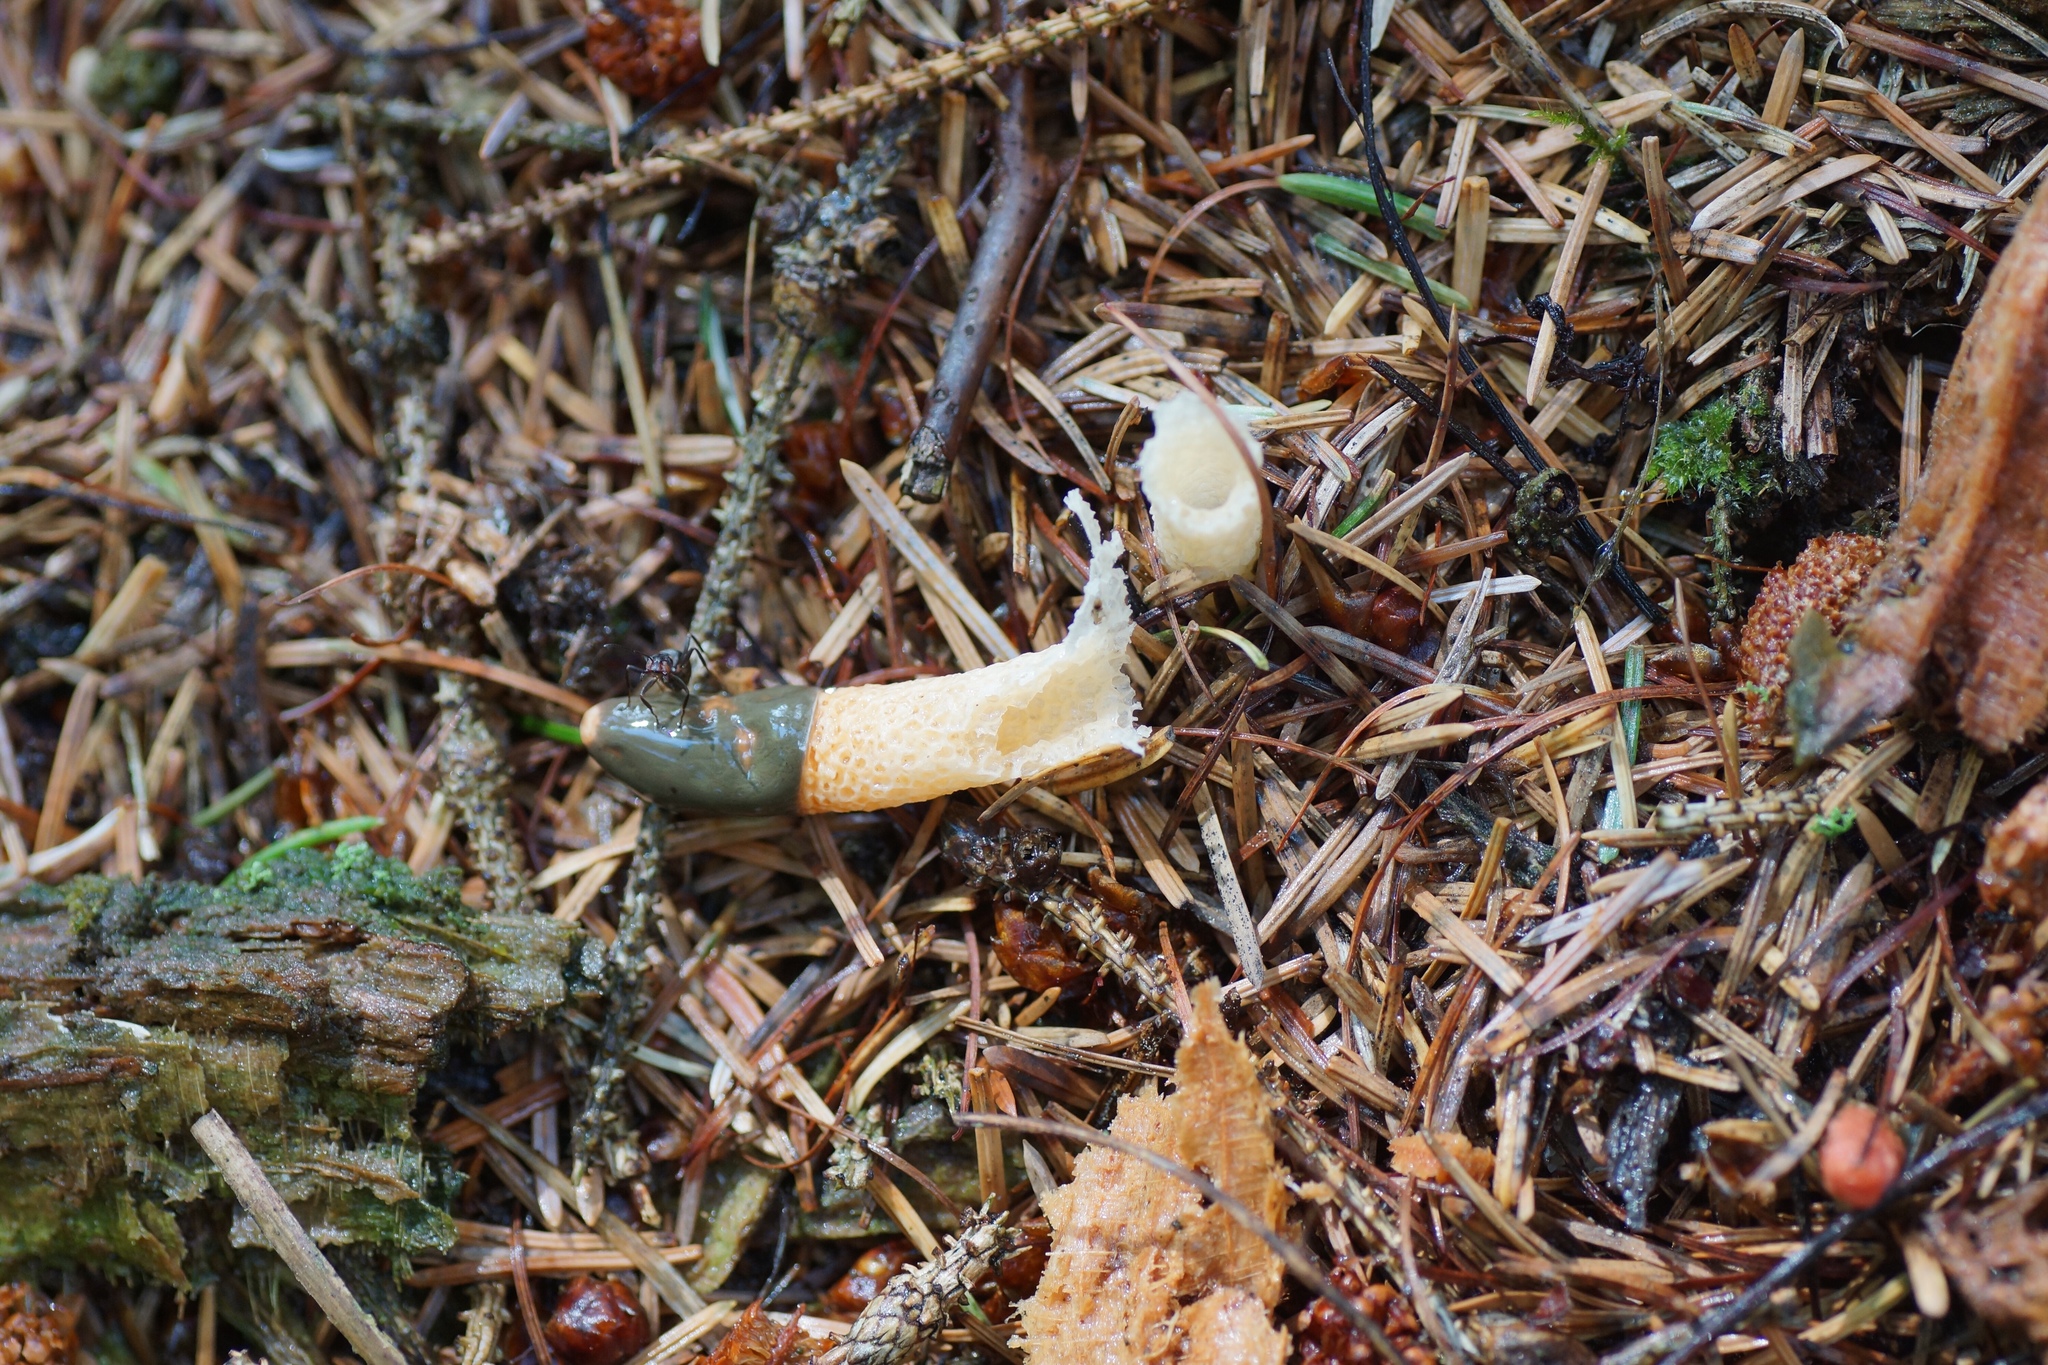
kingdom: Fungi
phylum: Basidiomycota
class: Agaricomycetes
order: Phallales
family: Phallaceae
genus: Mutinus
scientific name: Mutinus caninus
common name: Dog stinkhorn
